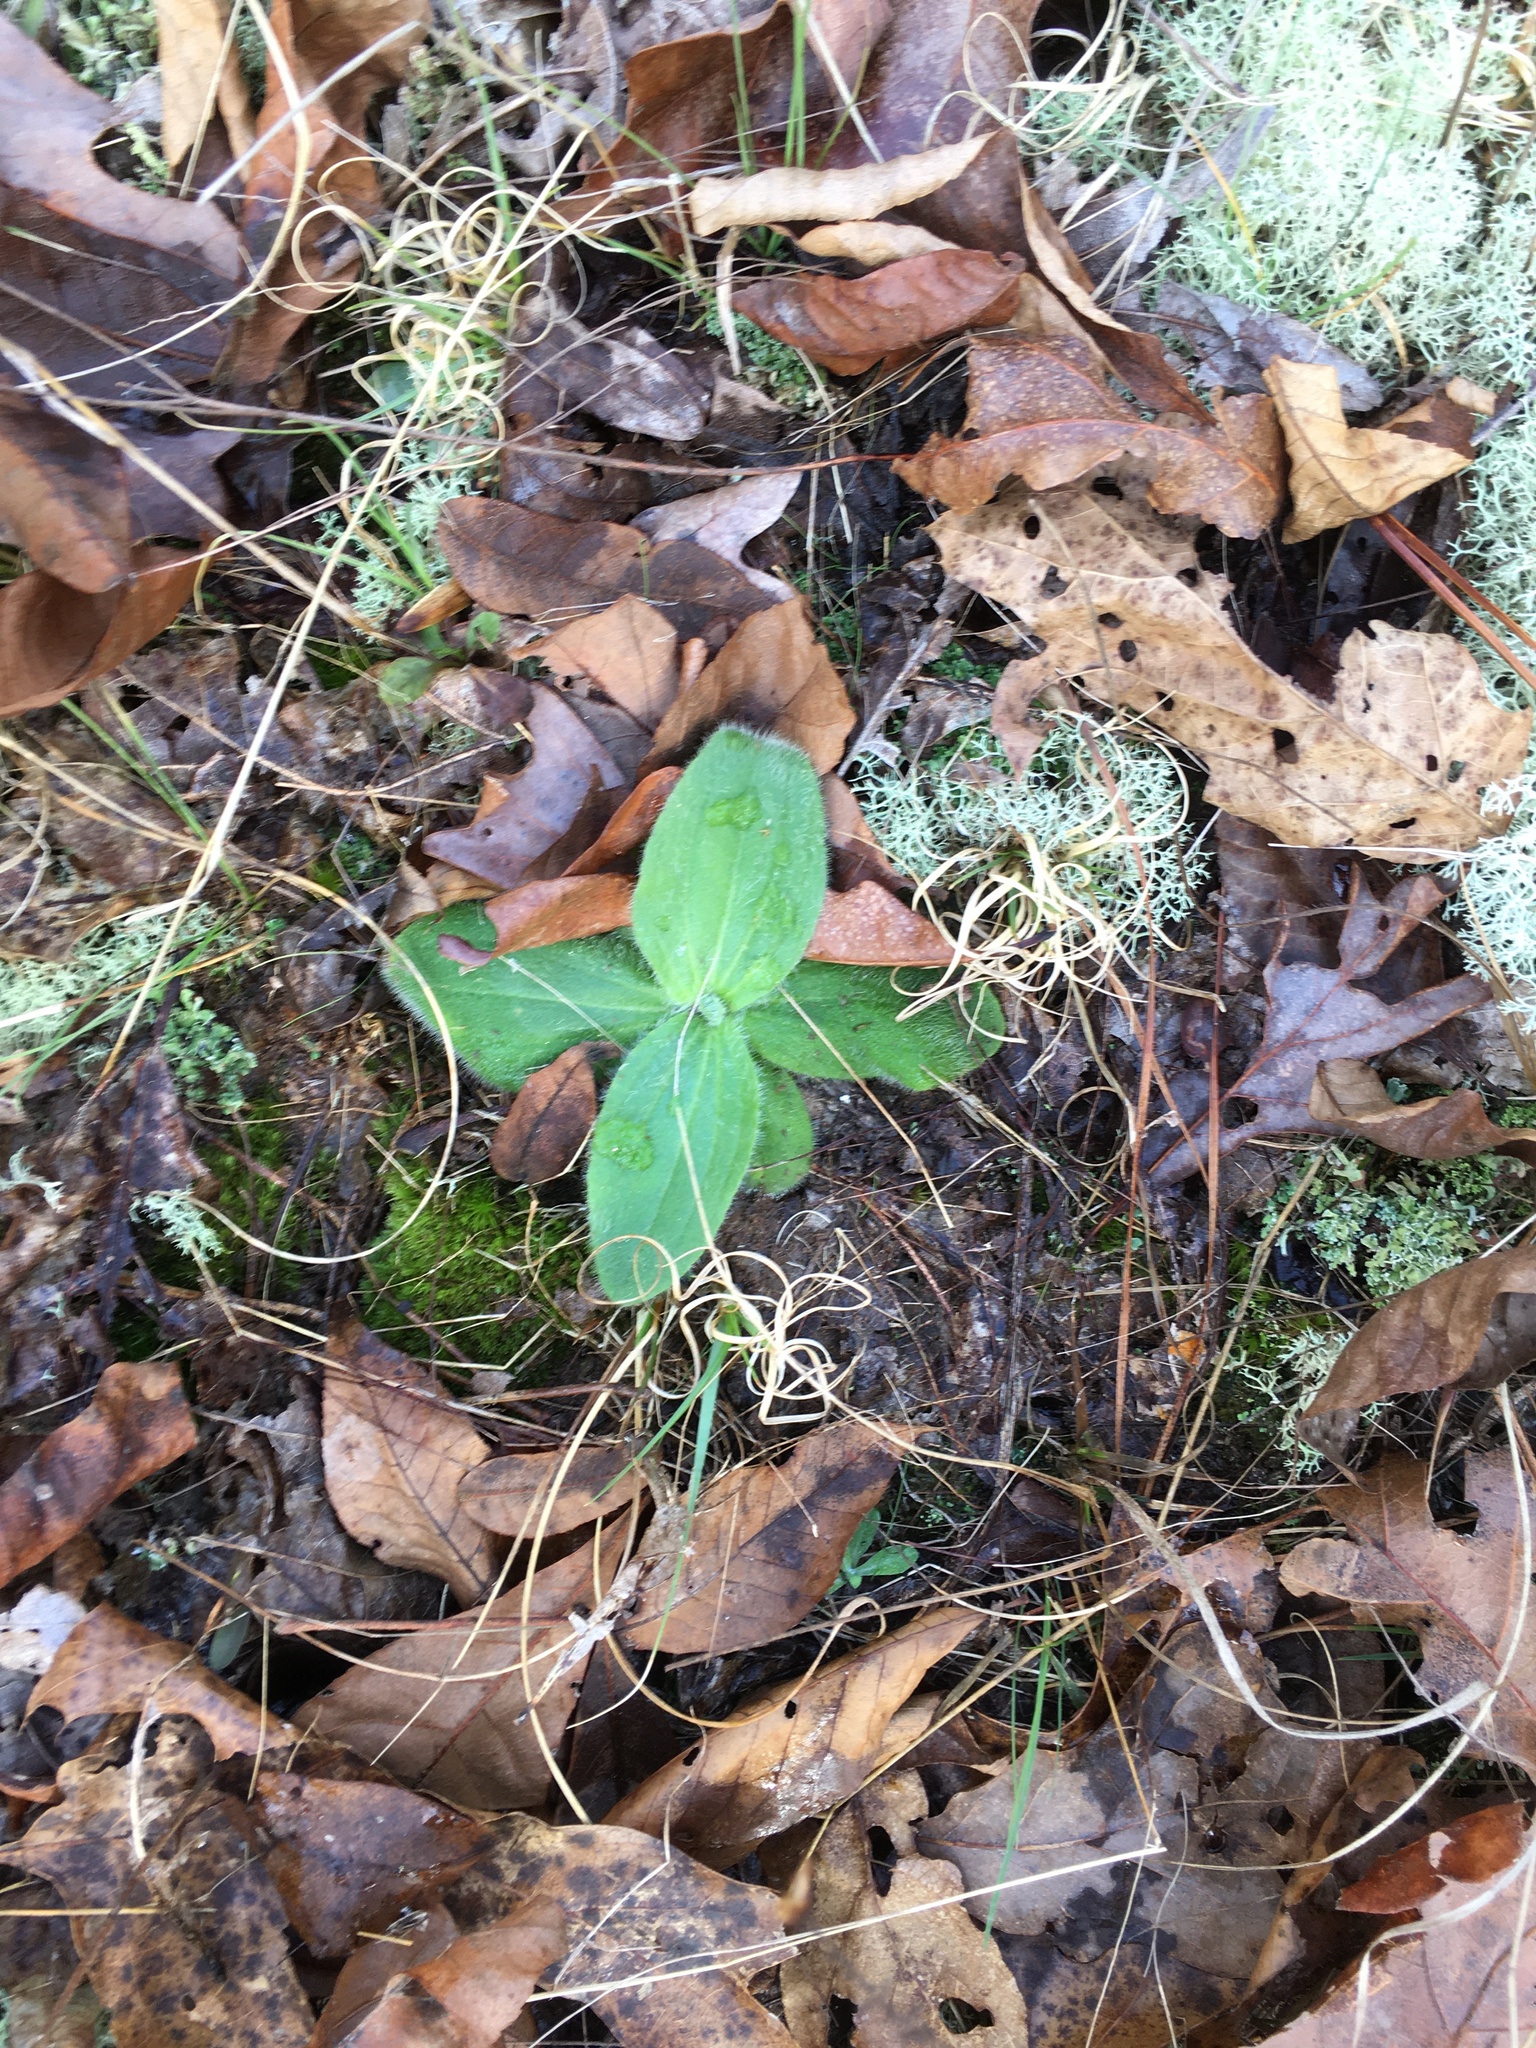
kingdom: Plantae
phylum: Tracheophyta
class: Magnoliopsida
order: Asterales
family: Asteraceae
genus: Arnica
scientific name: Arnica acaulis
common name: Common leopardbane
